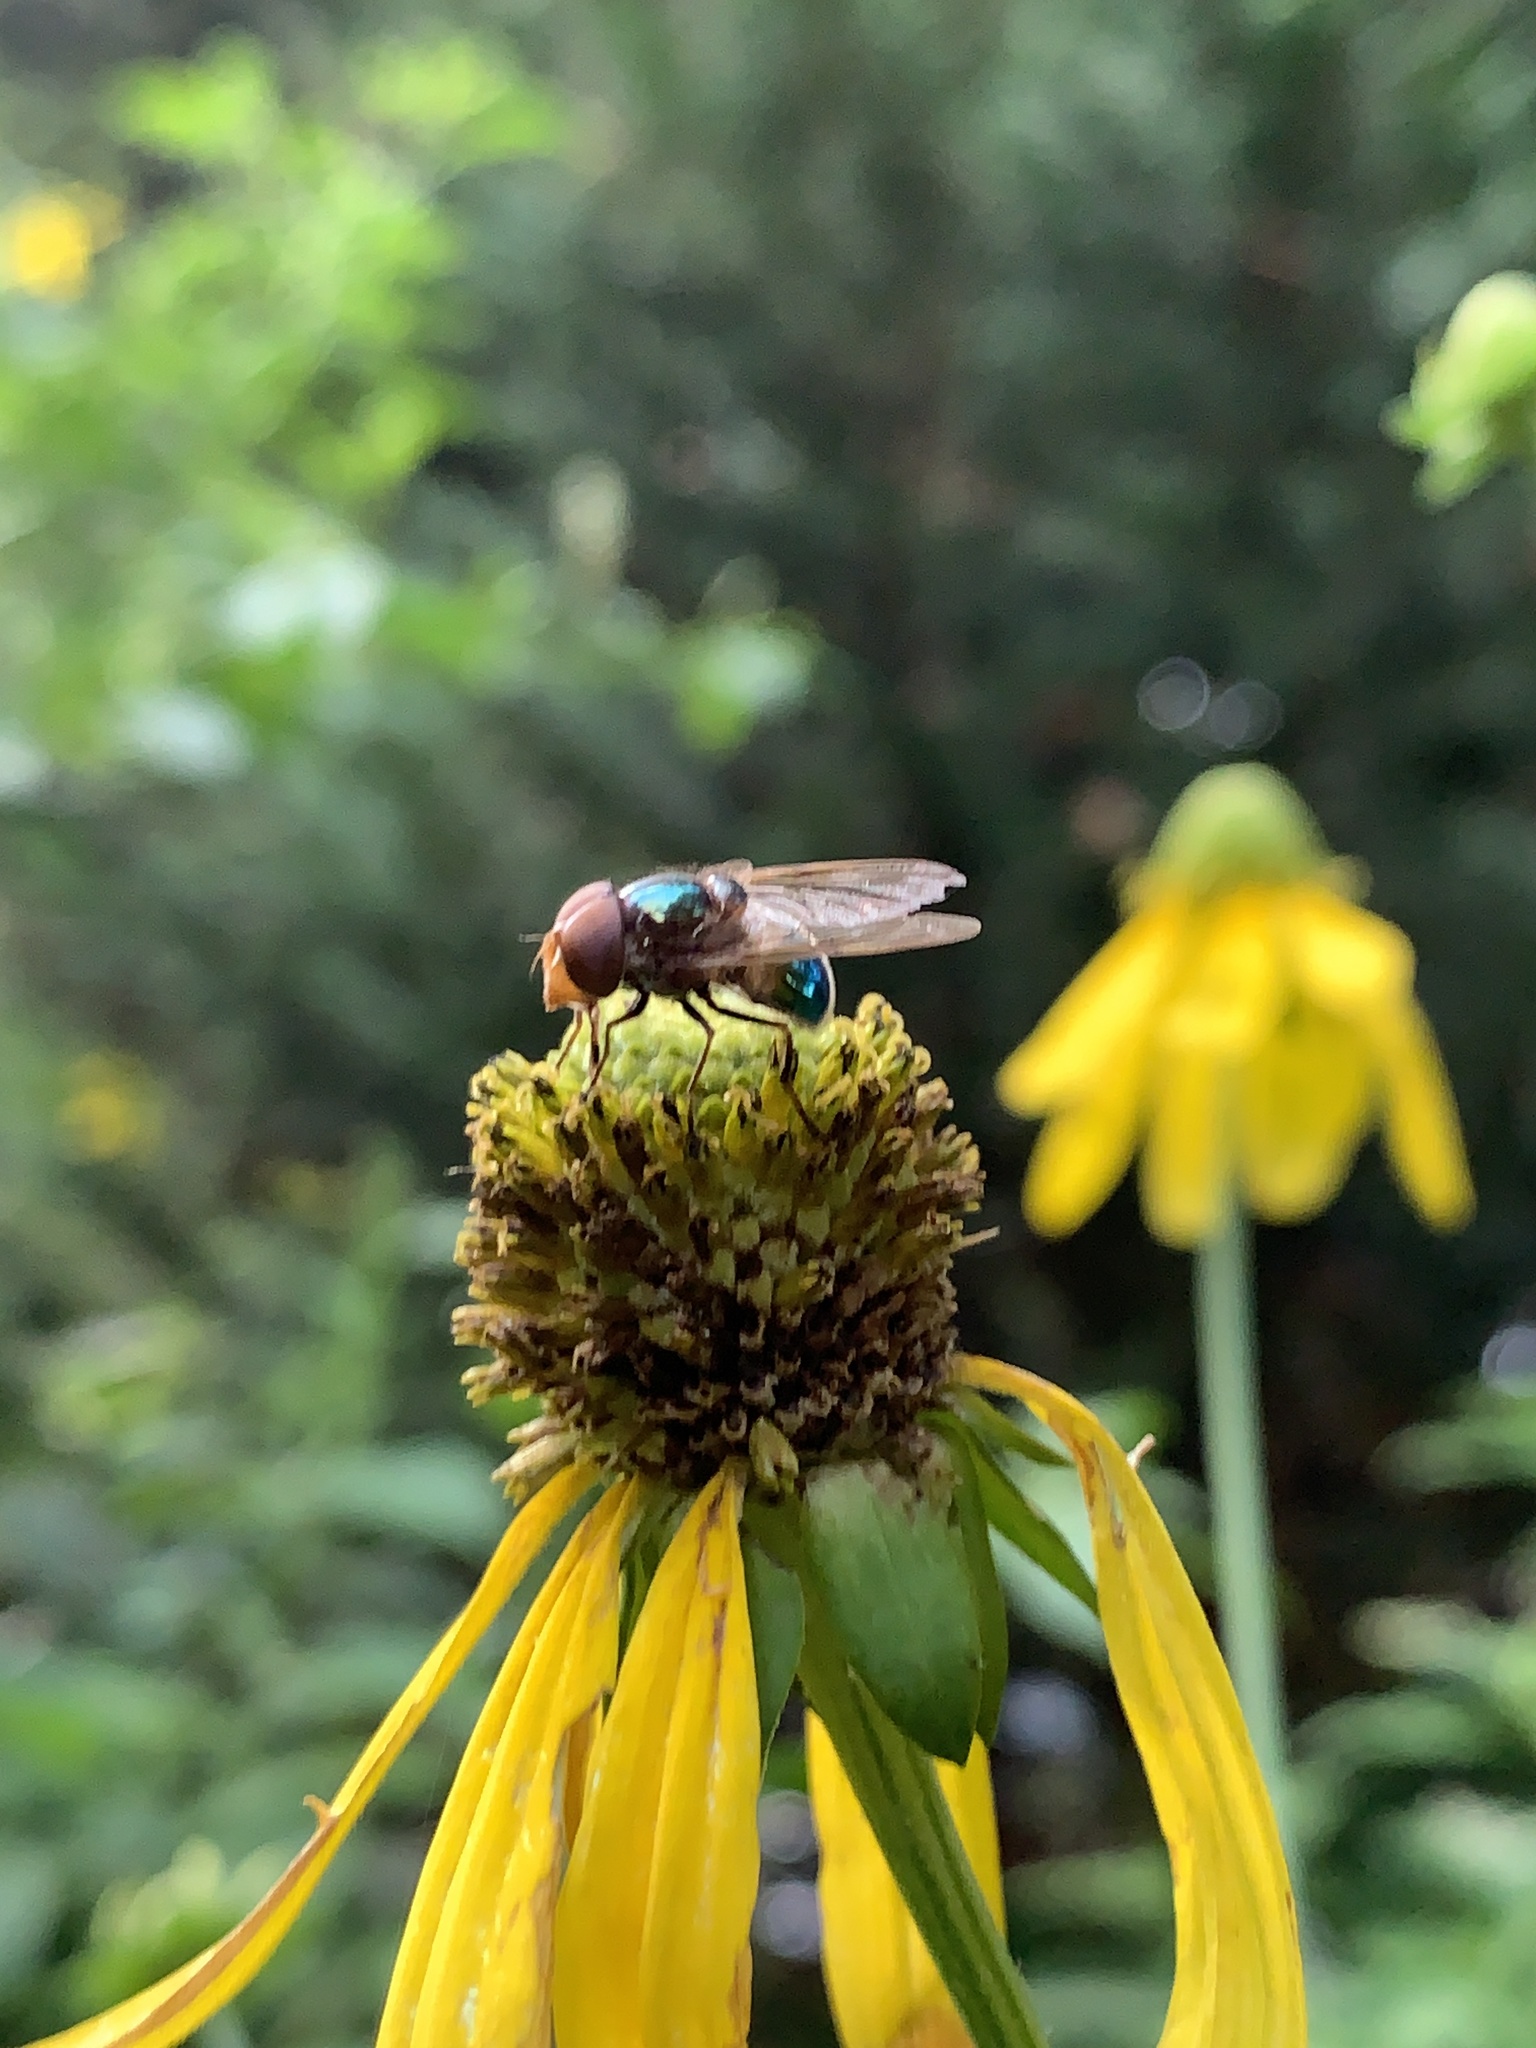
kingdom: Animalia
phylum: Arthropoda
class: Insecta
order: Diptera
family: Syrphidae
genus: Copestylum
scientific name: Copestylum vesicularium
